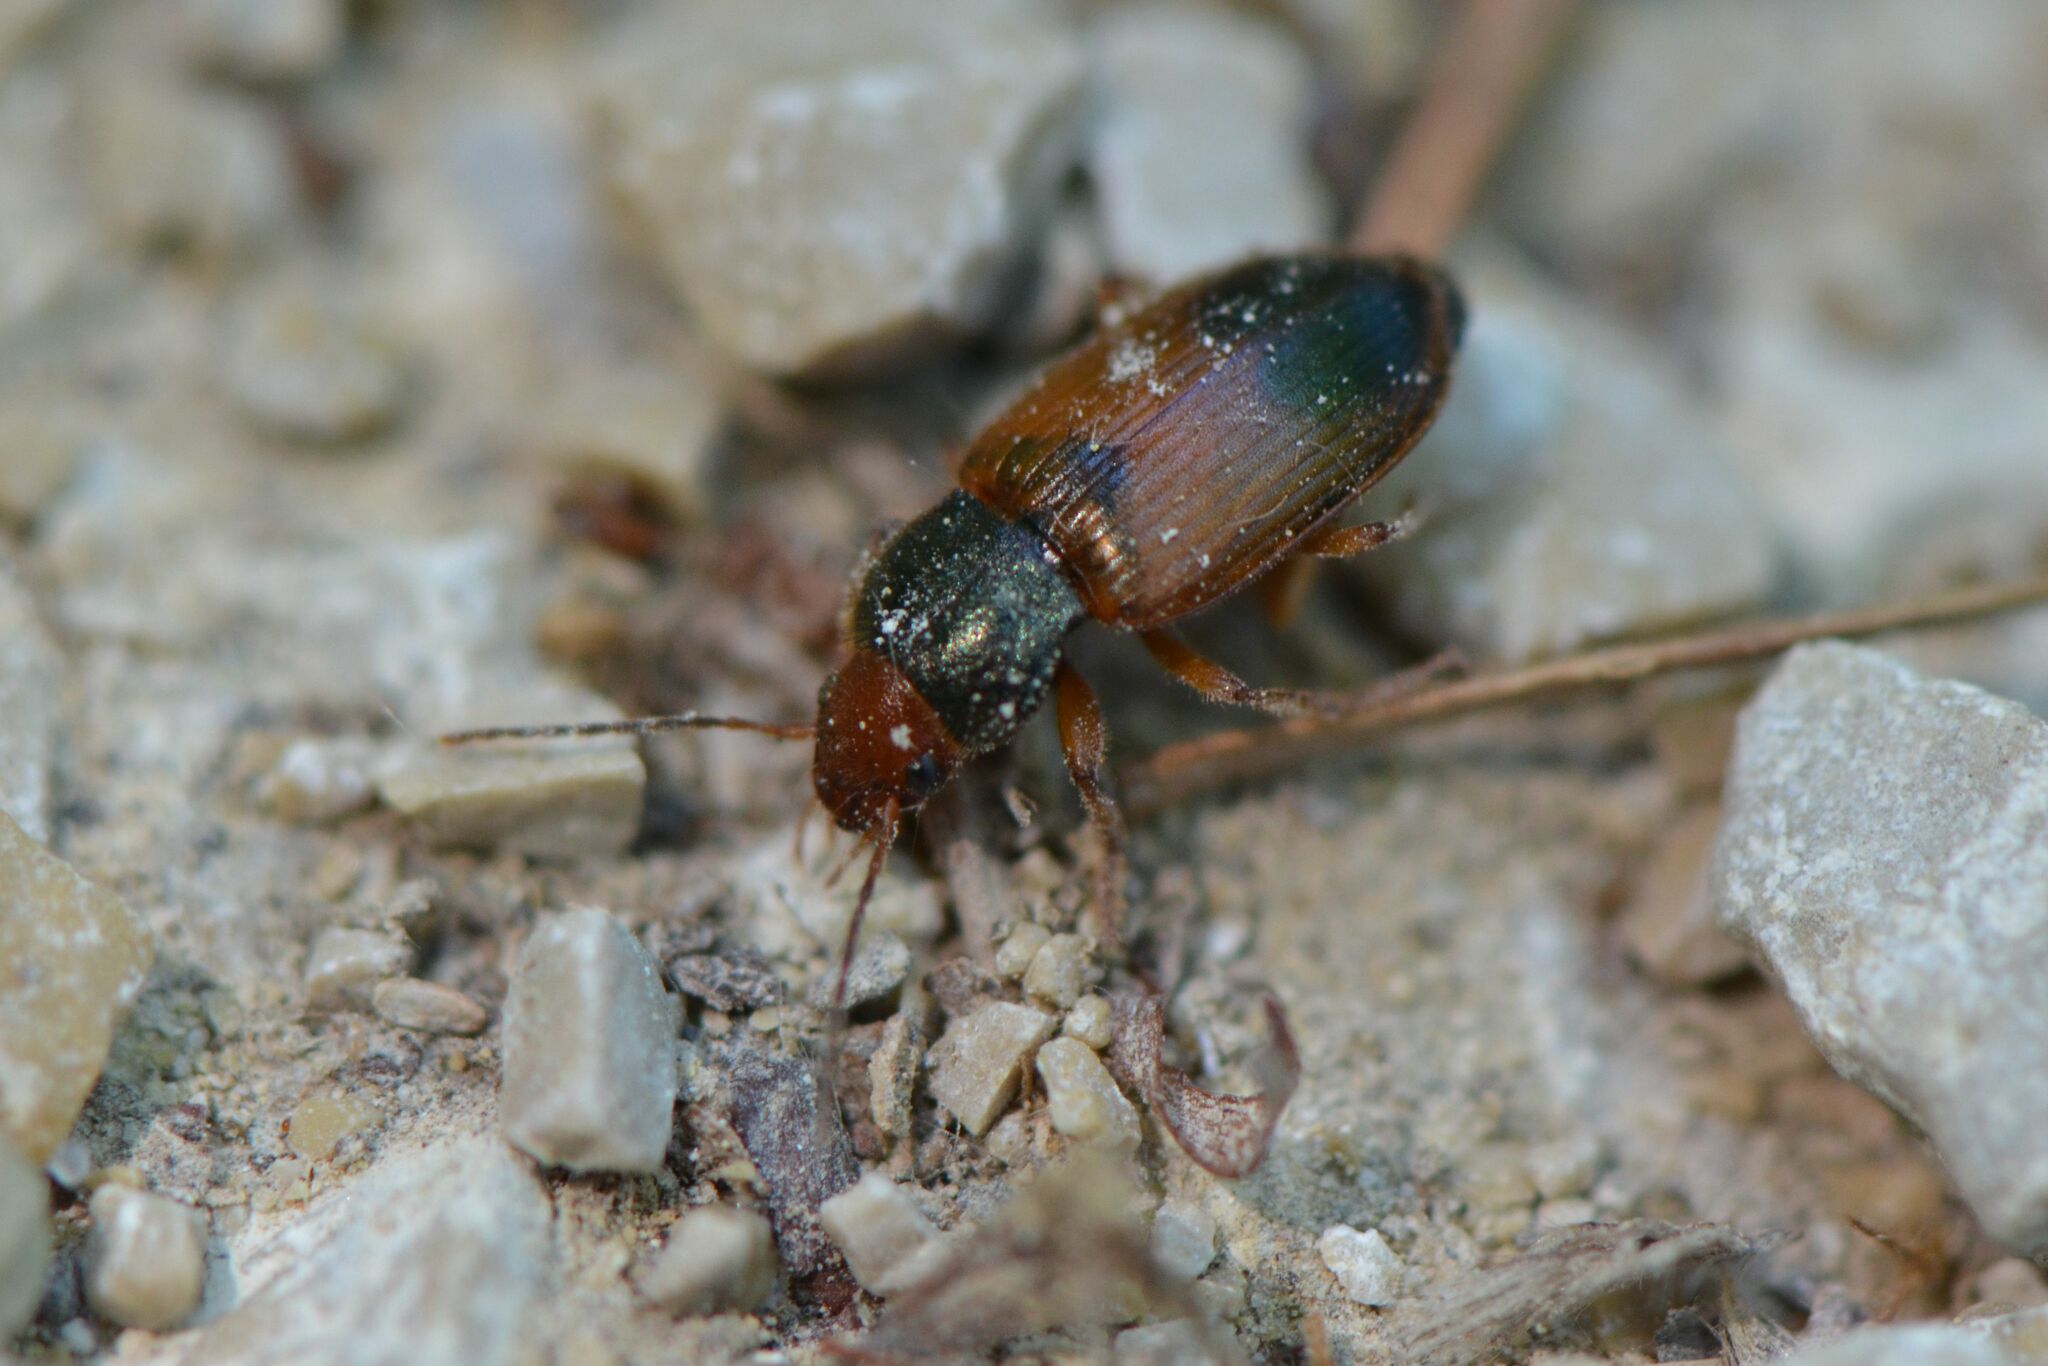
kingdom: Animalia
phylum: Arthropoda
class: Insecta
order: Coleoptera
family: Carabidae
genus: Diachromus
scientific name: Diachromus germanus
